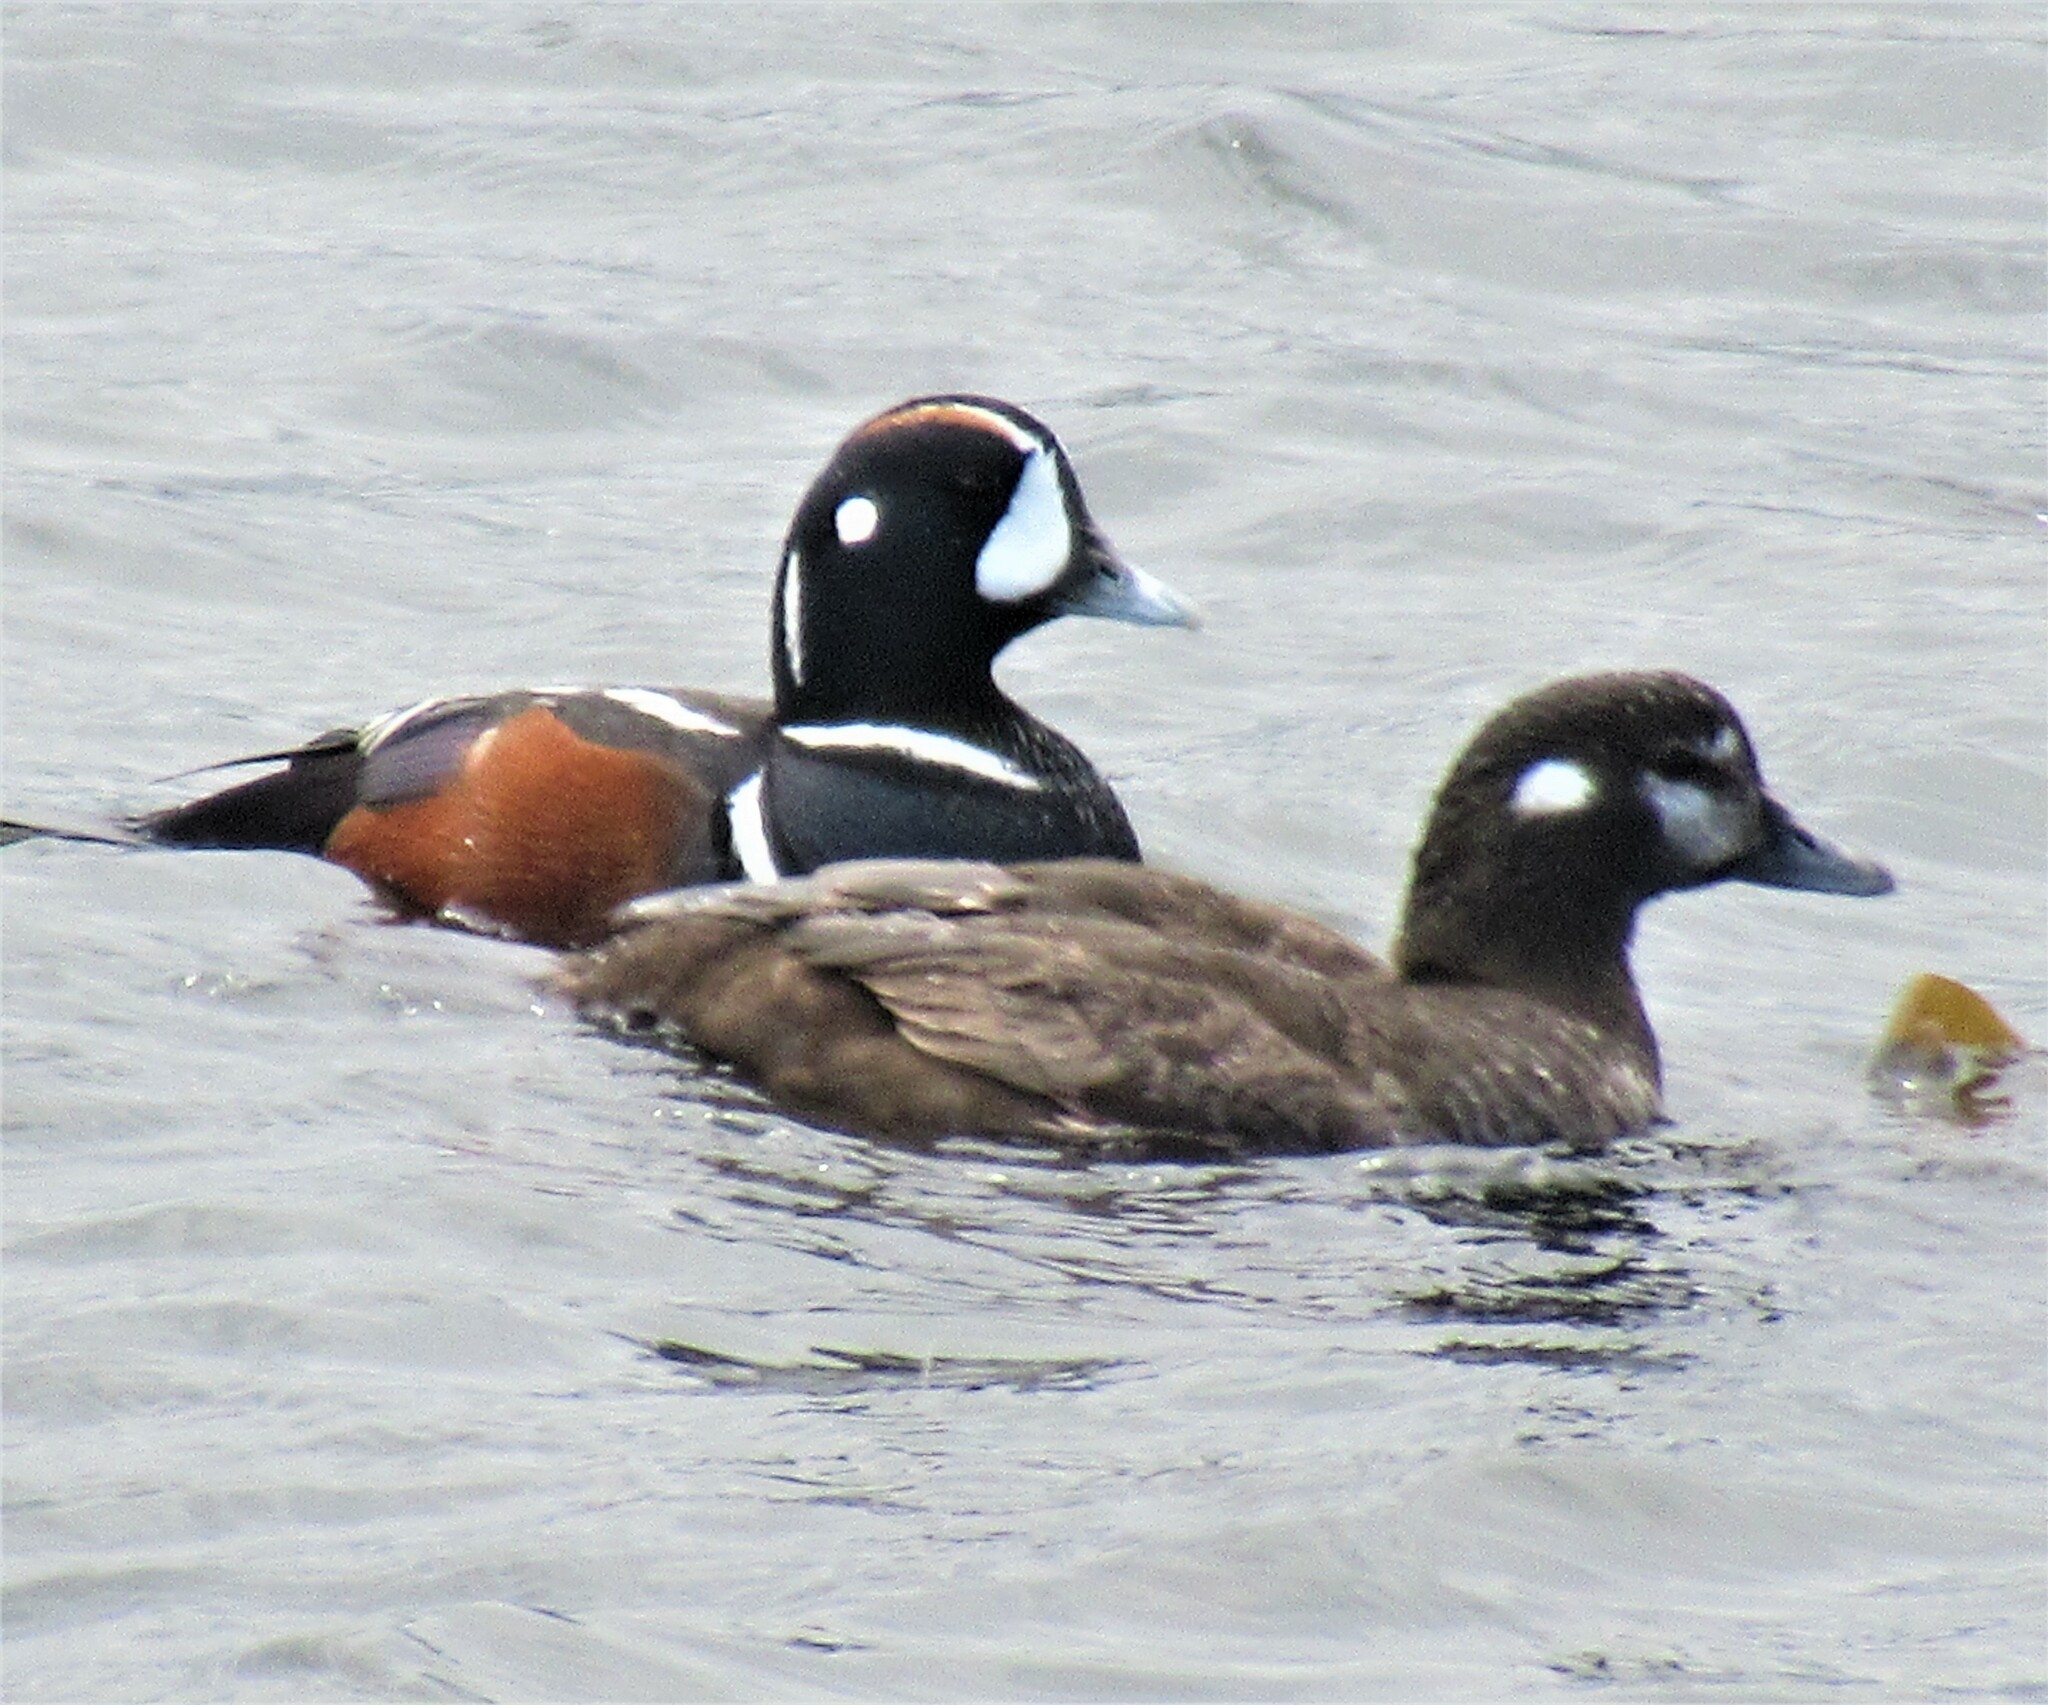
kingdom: Animalia
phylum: Chordata
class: Aves
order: Anseriformes
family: Anatidae
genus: Histrionicus
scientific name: Histrionicus histrionicus
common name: Harlequin duck
